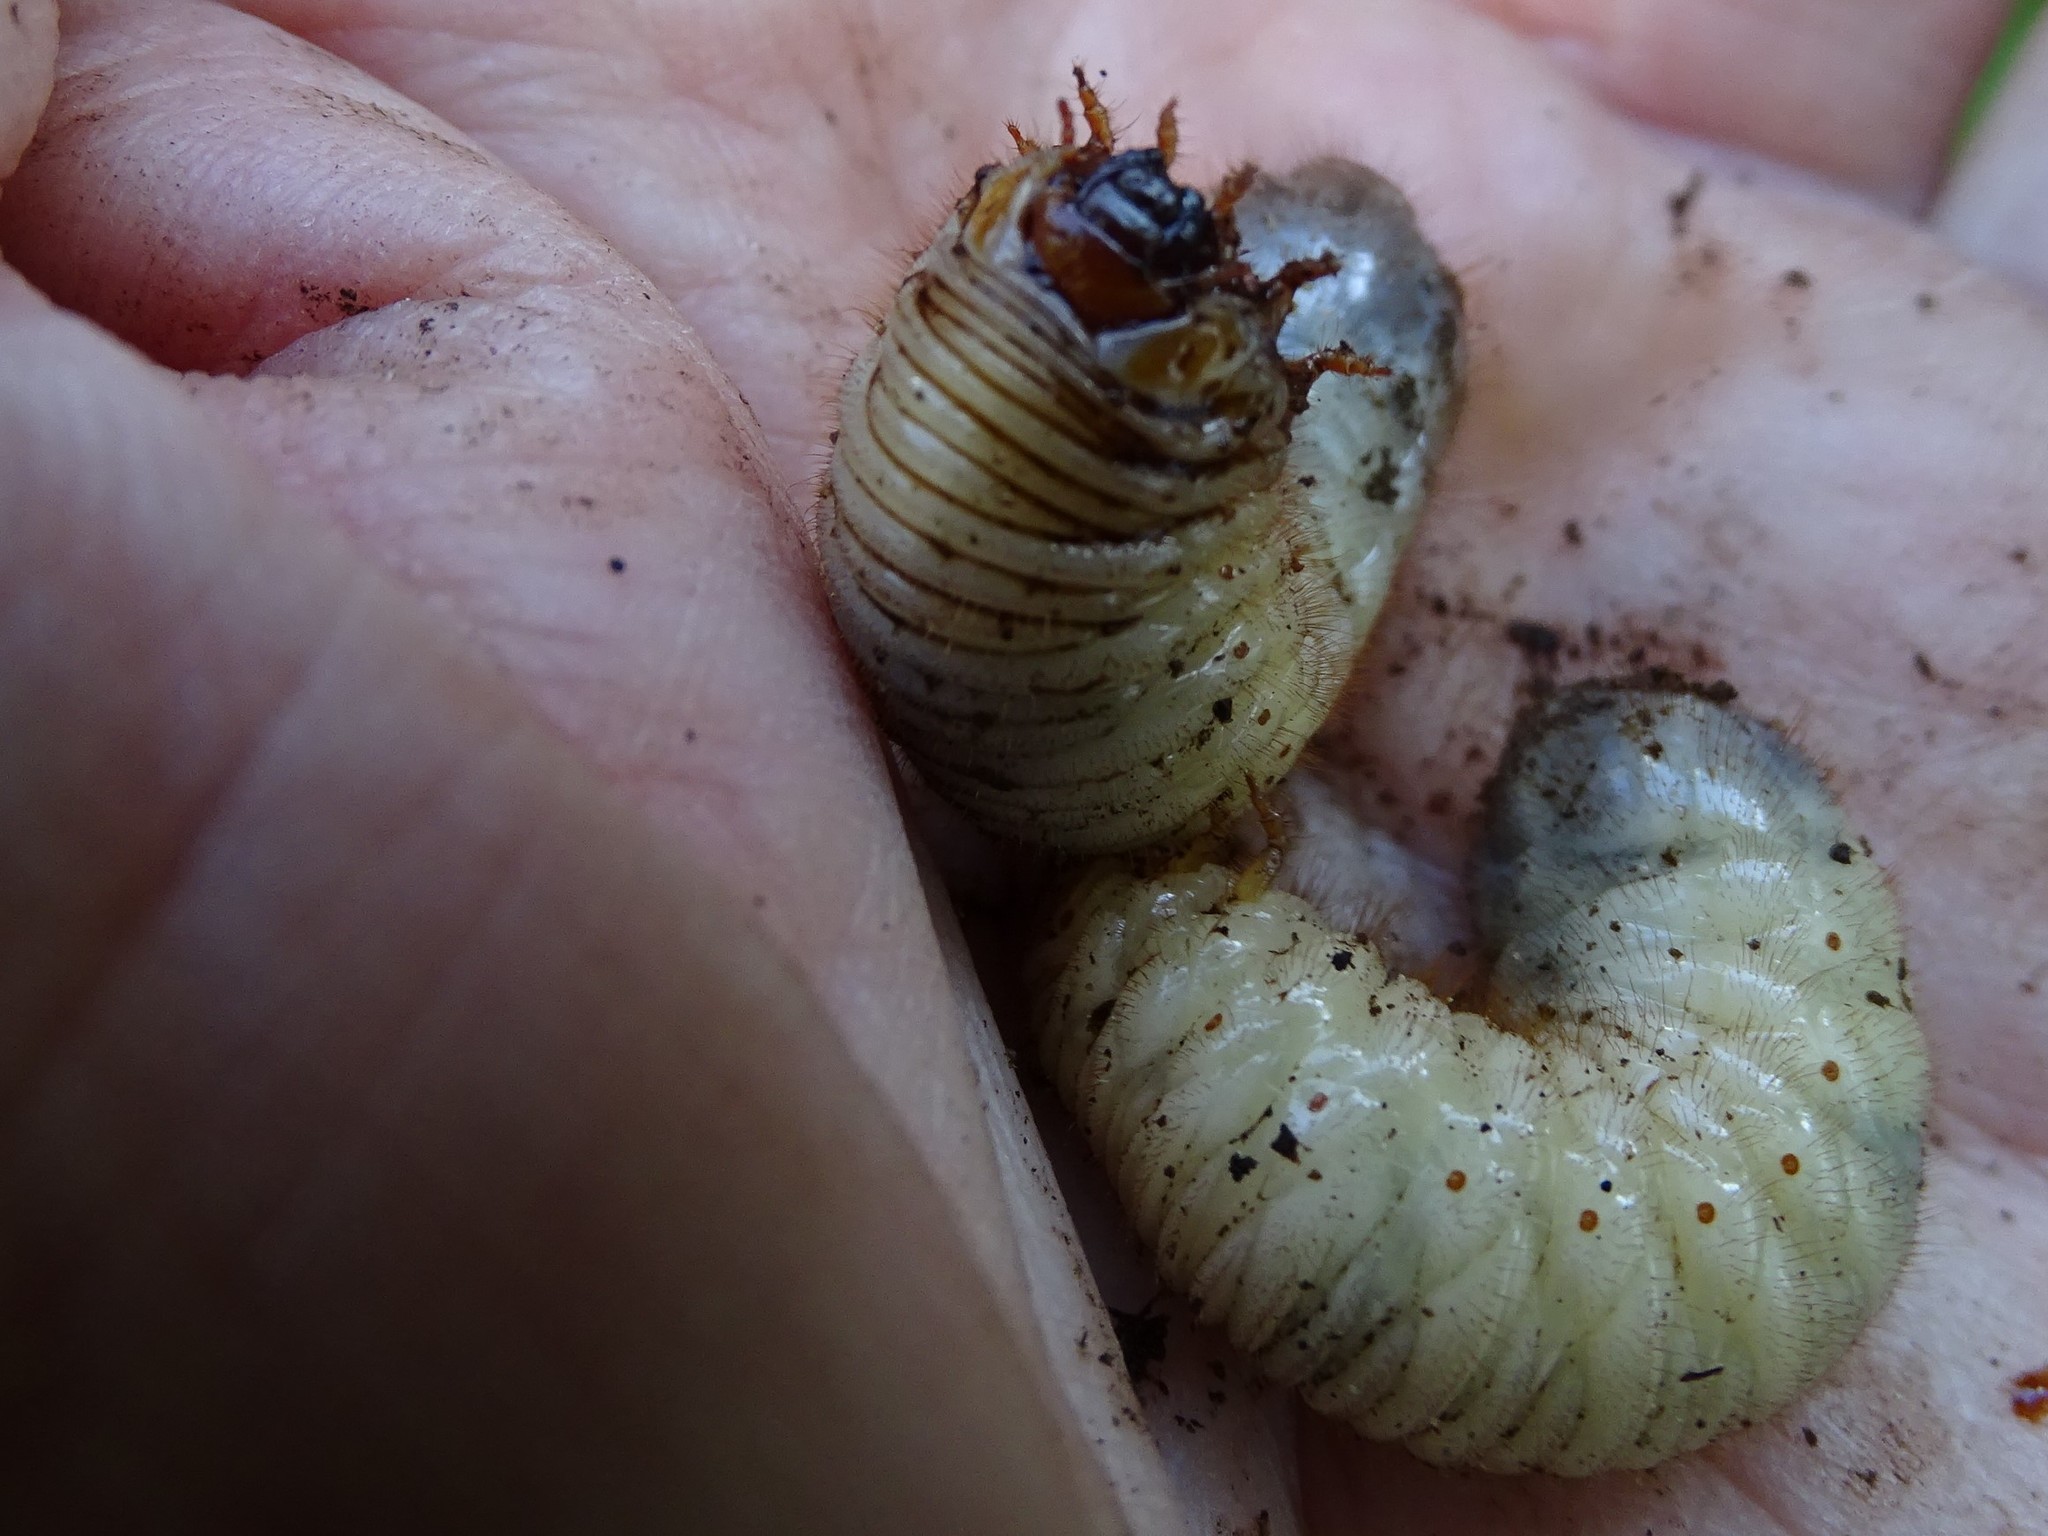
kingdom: Animalia
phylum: Arthropoda
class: Insecta
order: Coleoptera
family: Scarabaeidae
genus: Cetonia
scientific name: Cetonia aurata
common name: Rose chafer
